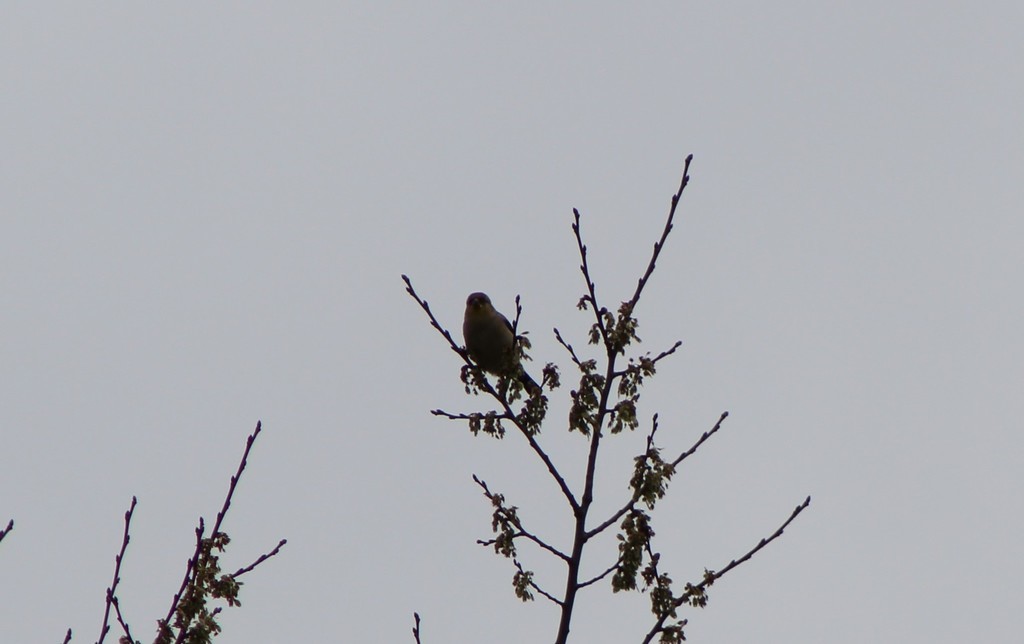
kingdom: Animalia
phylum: Chordata
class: Aves
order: Passeriformes
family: Fringillidae
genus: Spinus
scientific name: Spinus tristis
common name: American goldfinch
